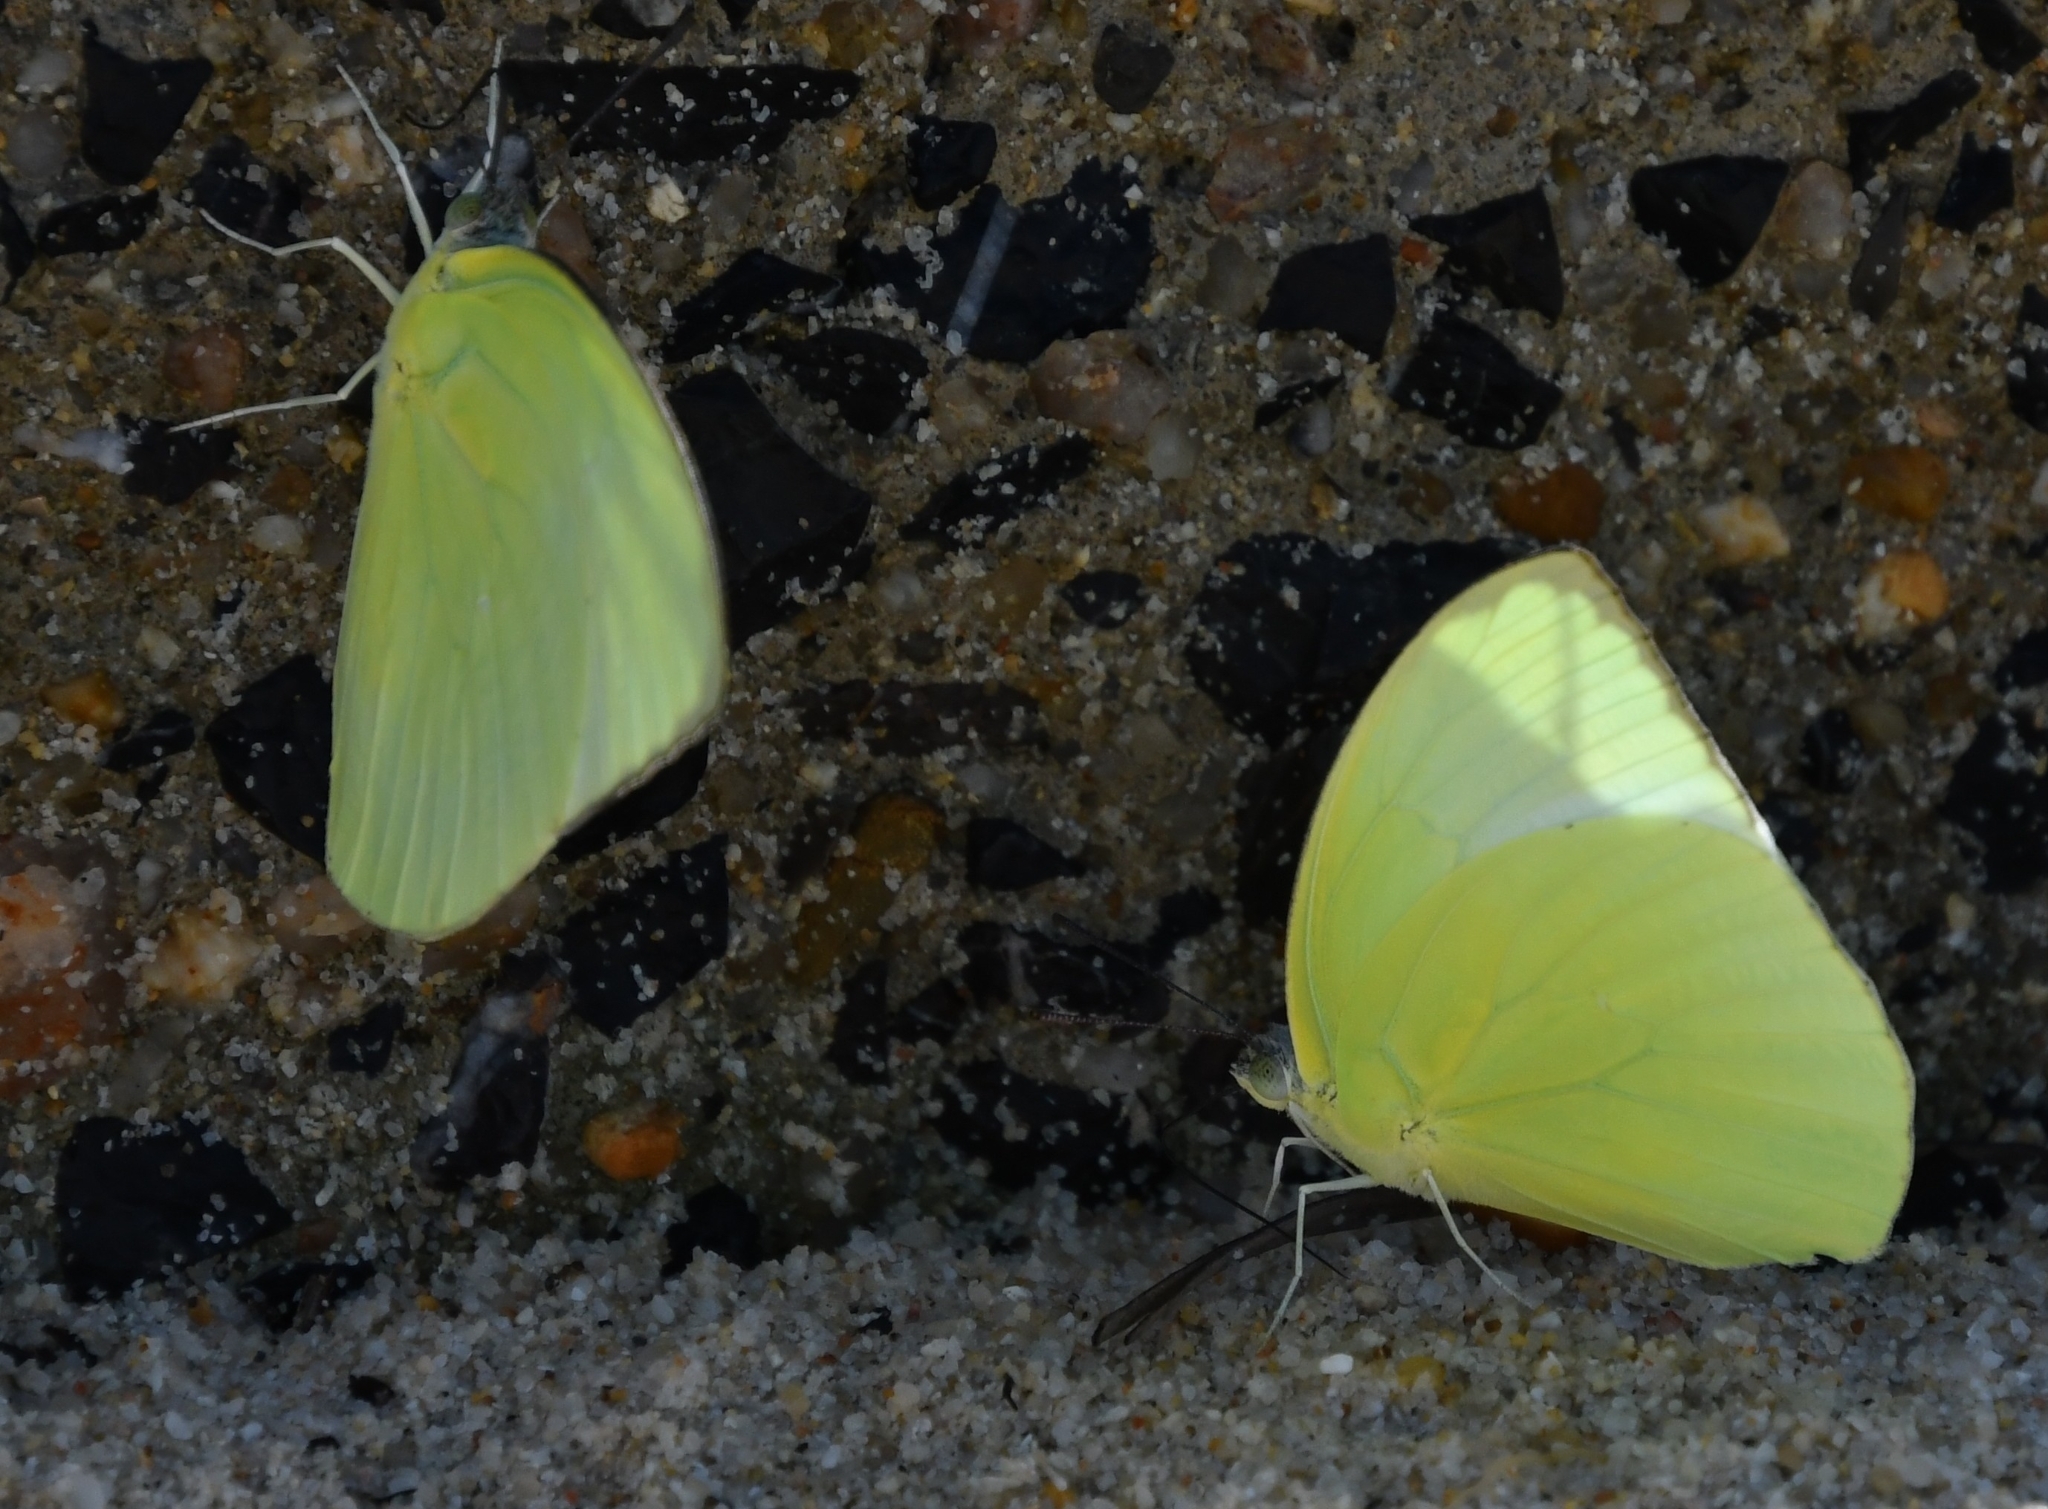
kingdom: Animalia
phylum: Arthropoda
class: Insecta
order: Lepidoptera
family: Pieridae
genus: Catopsilia
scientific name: Catopsilia pomona
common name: Common emigrant
